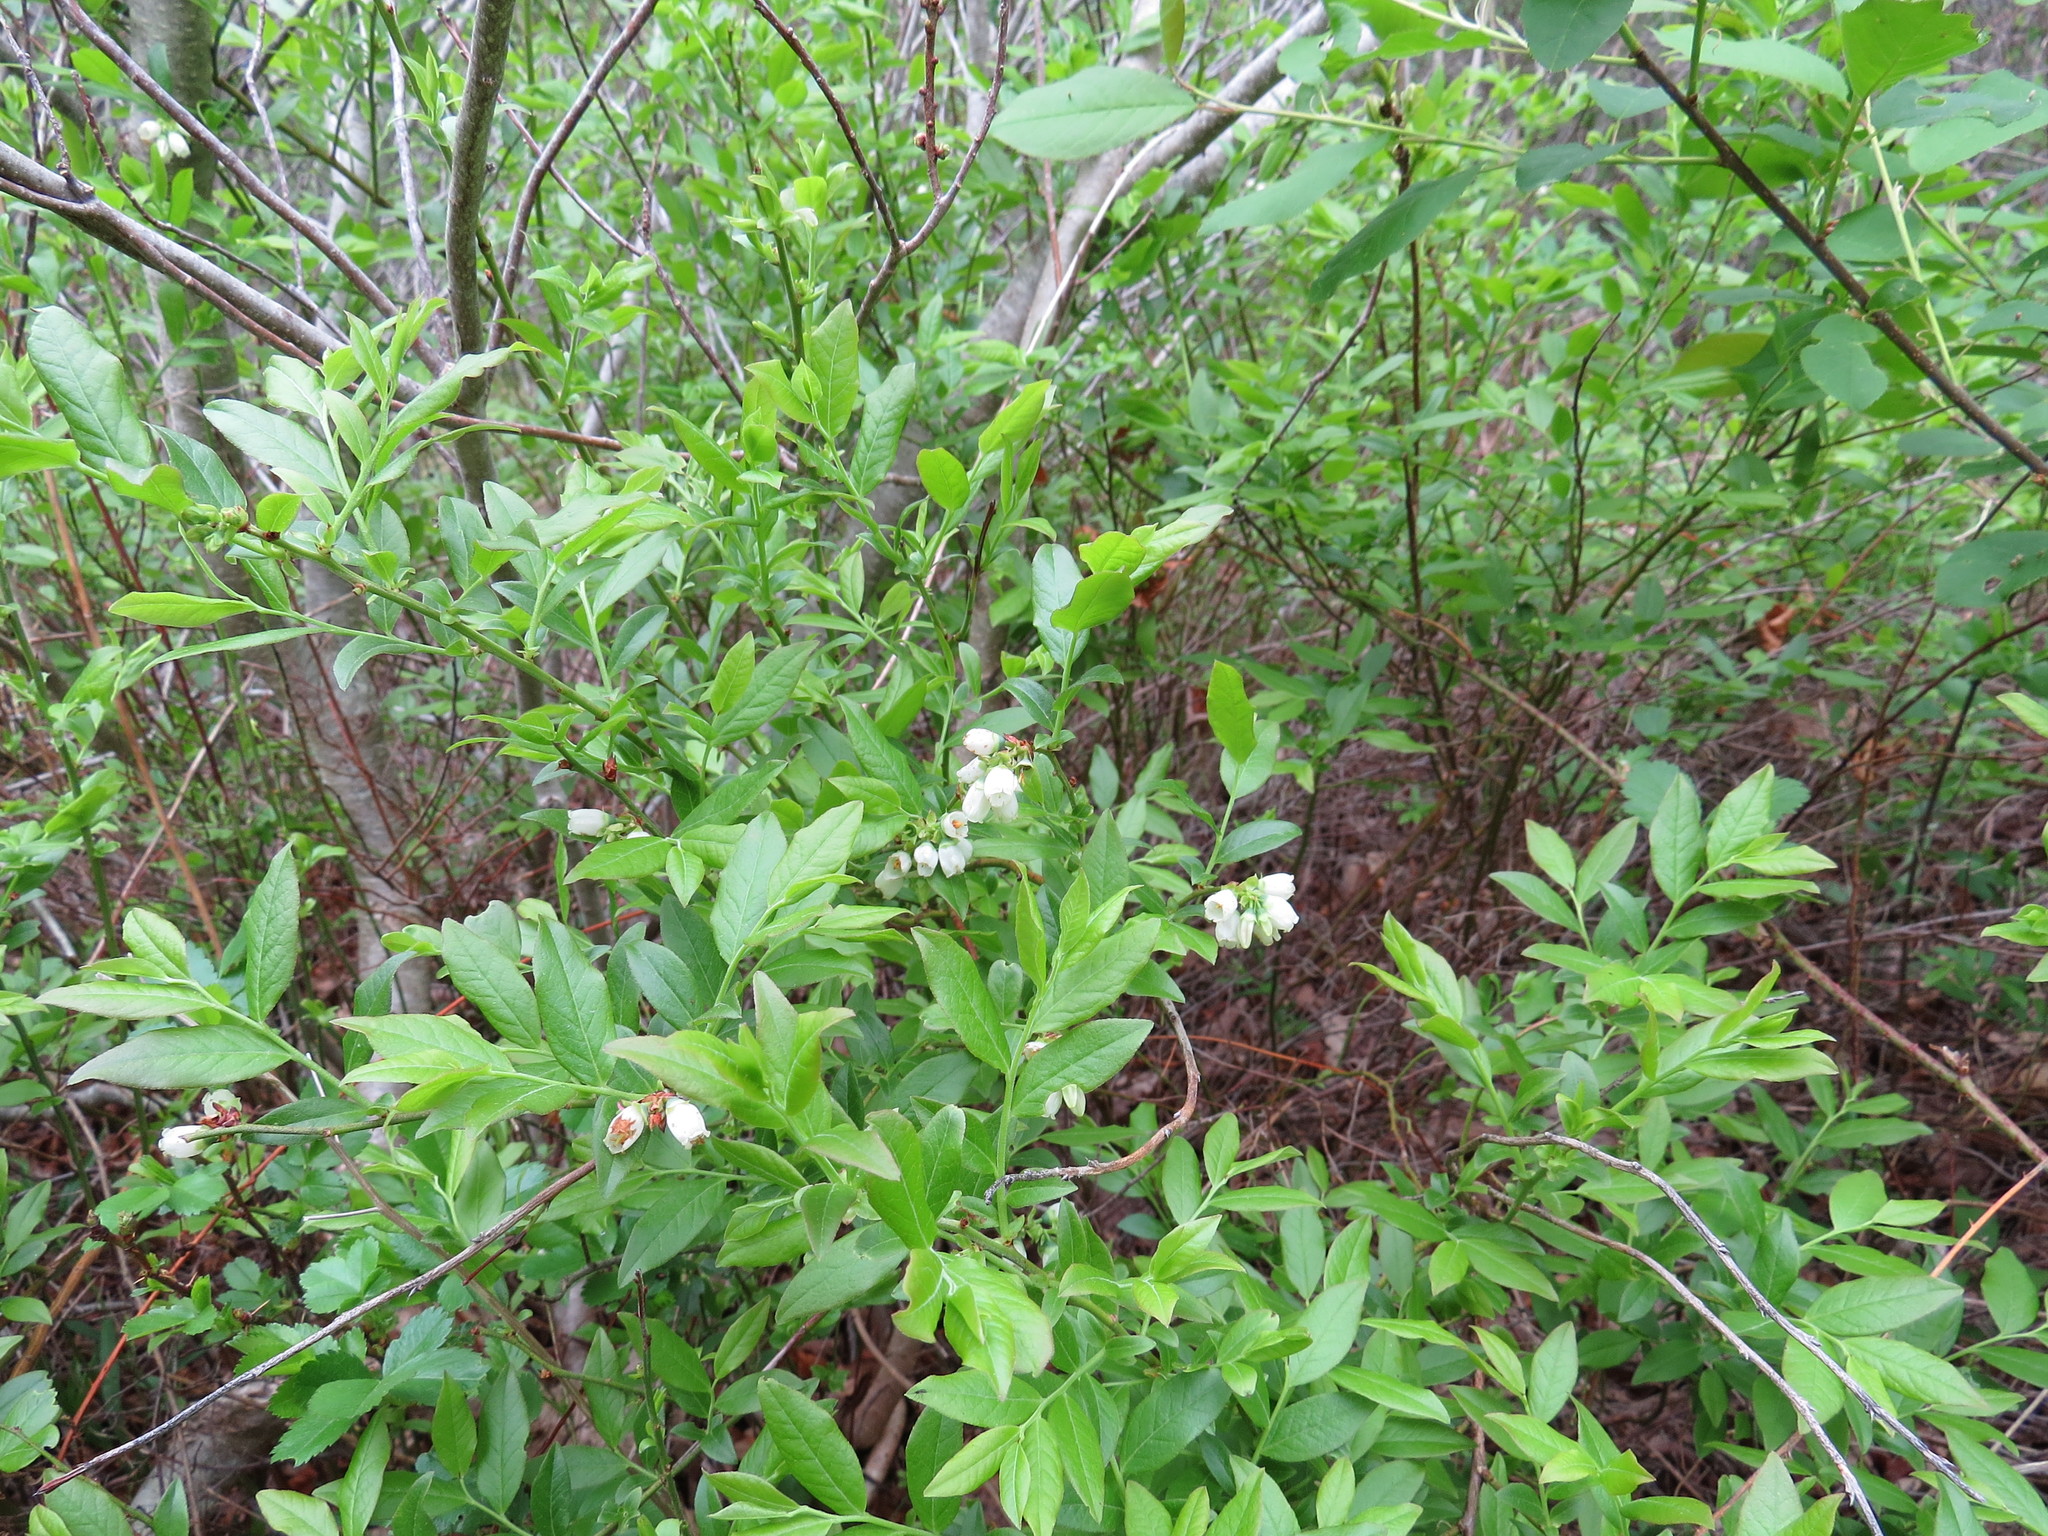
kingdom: Plantae
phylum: Tracheophyta
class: Magnoliopsida
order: Ericales
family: Ericaceae
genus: Vaccinium
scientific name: Vaccinium corymbosum
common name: Blueberry
